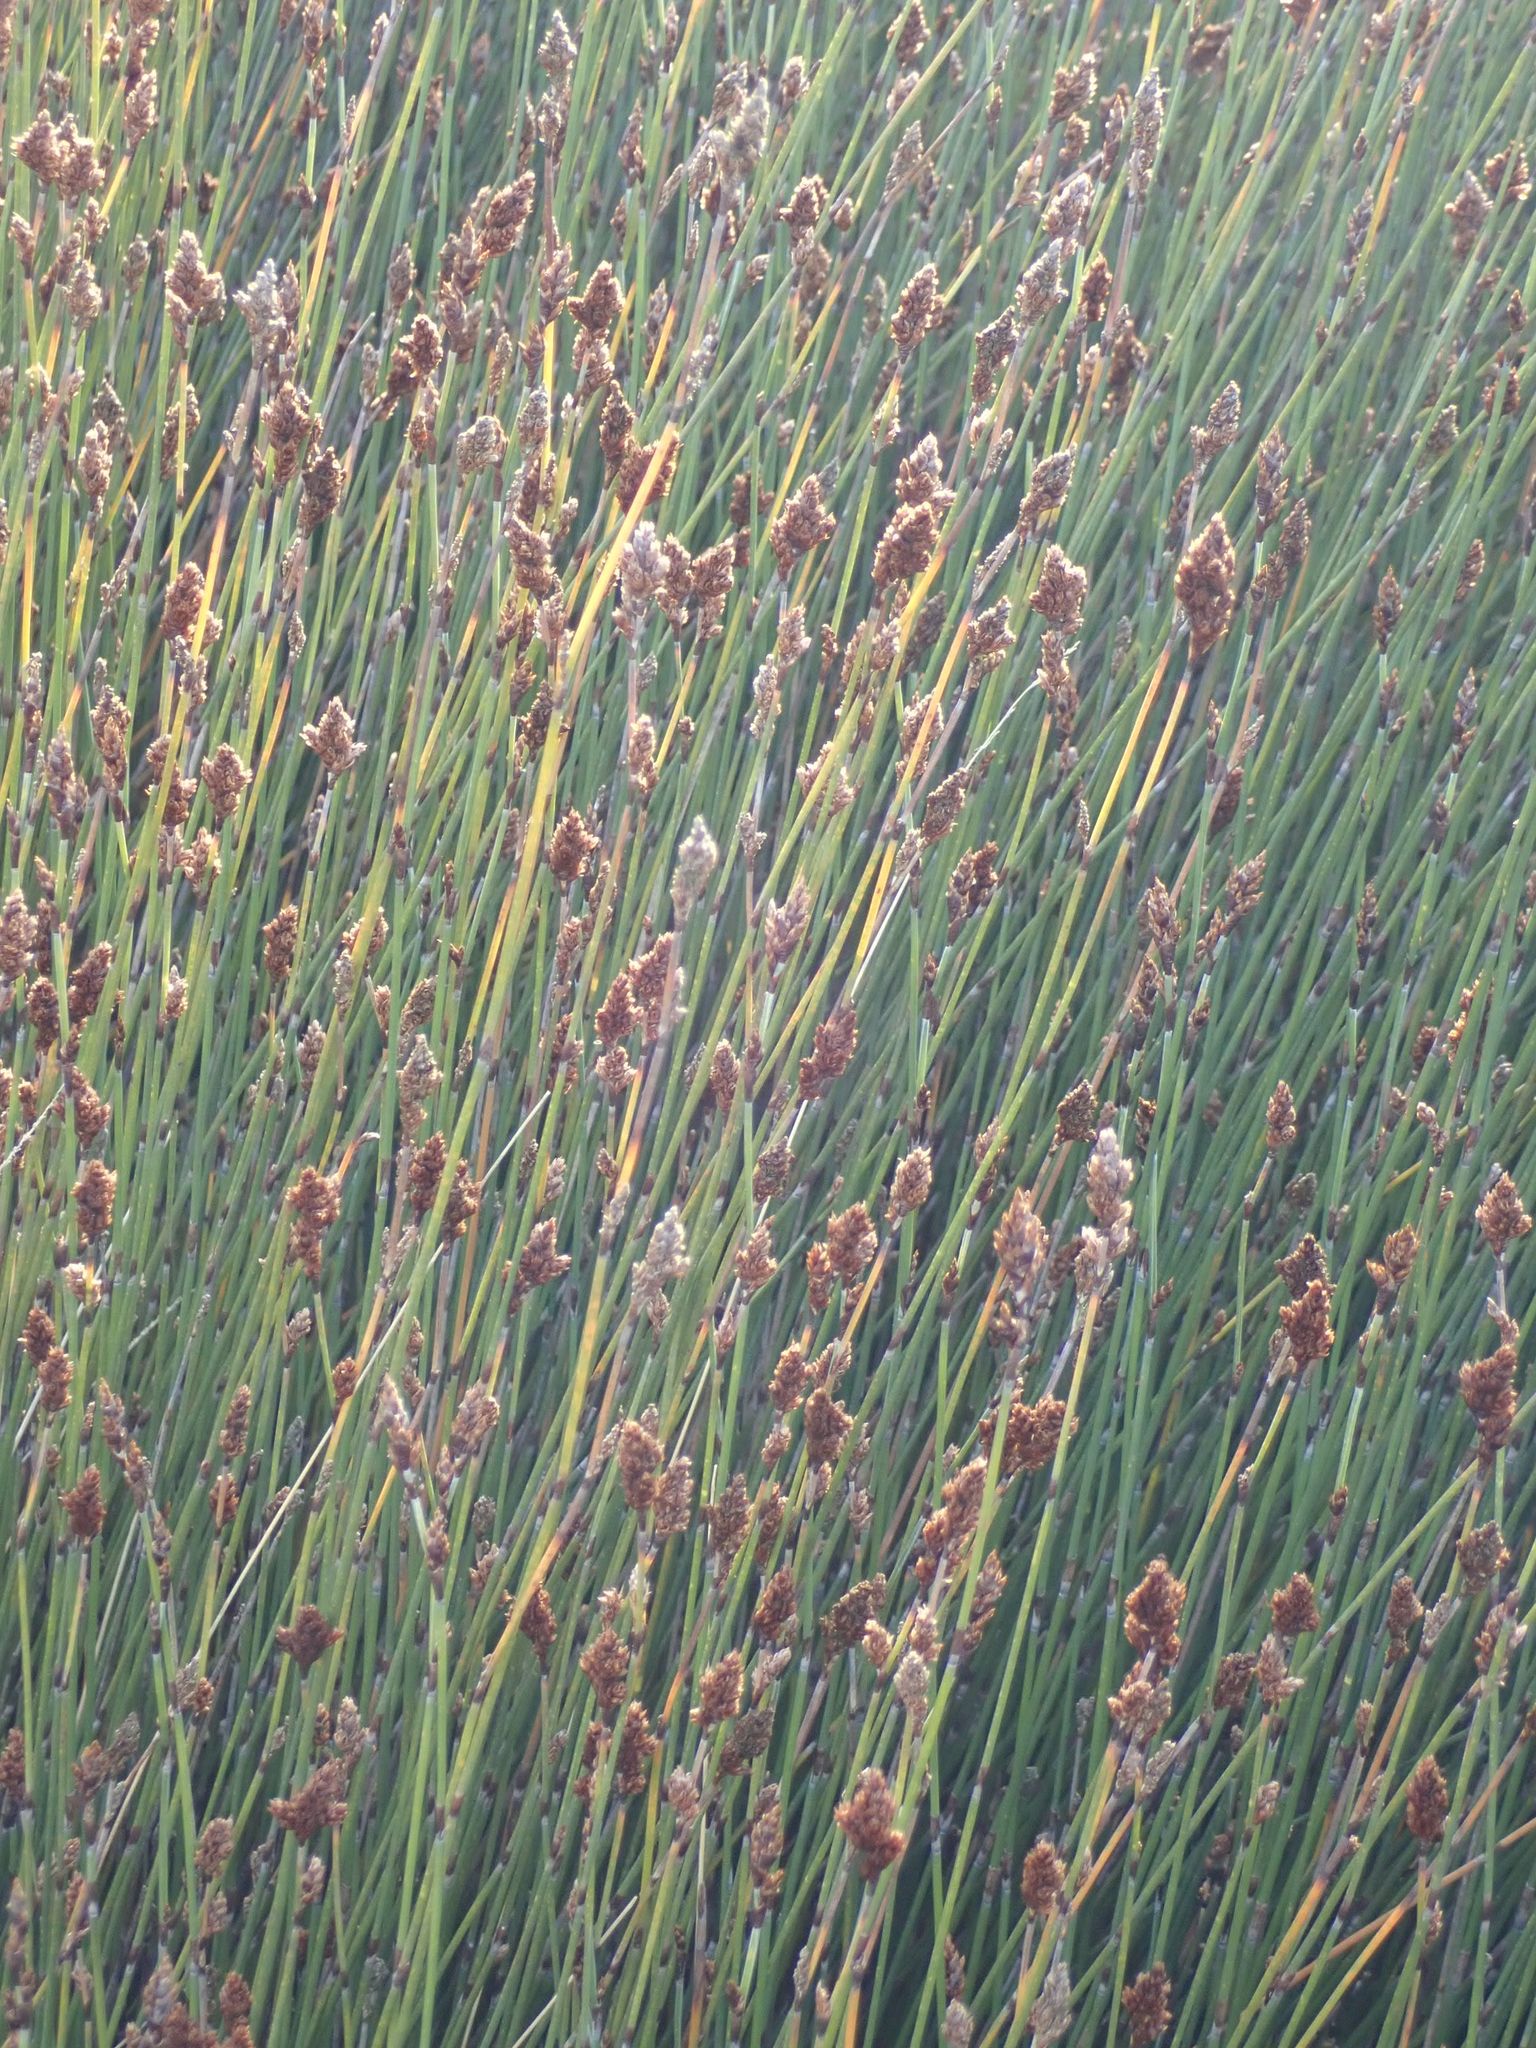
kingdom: Plantae
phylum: Tracheophyta
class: Liliopsida
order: Poales
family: Restionaceae
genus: Apodasmia
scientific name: Apodasmia similis
